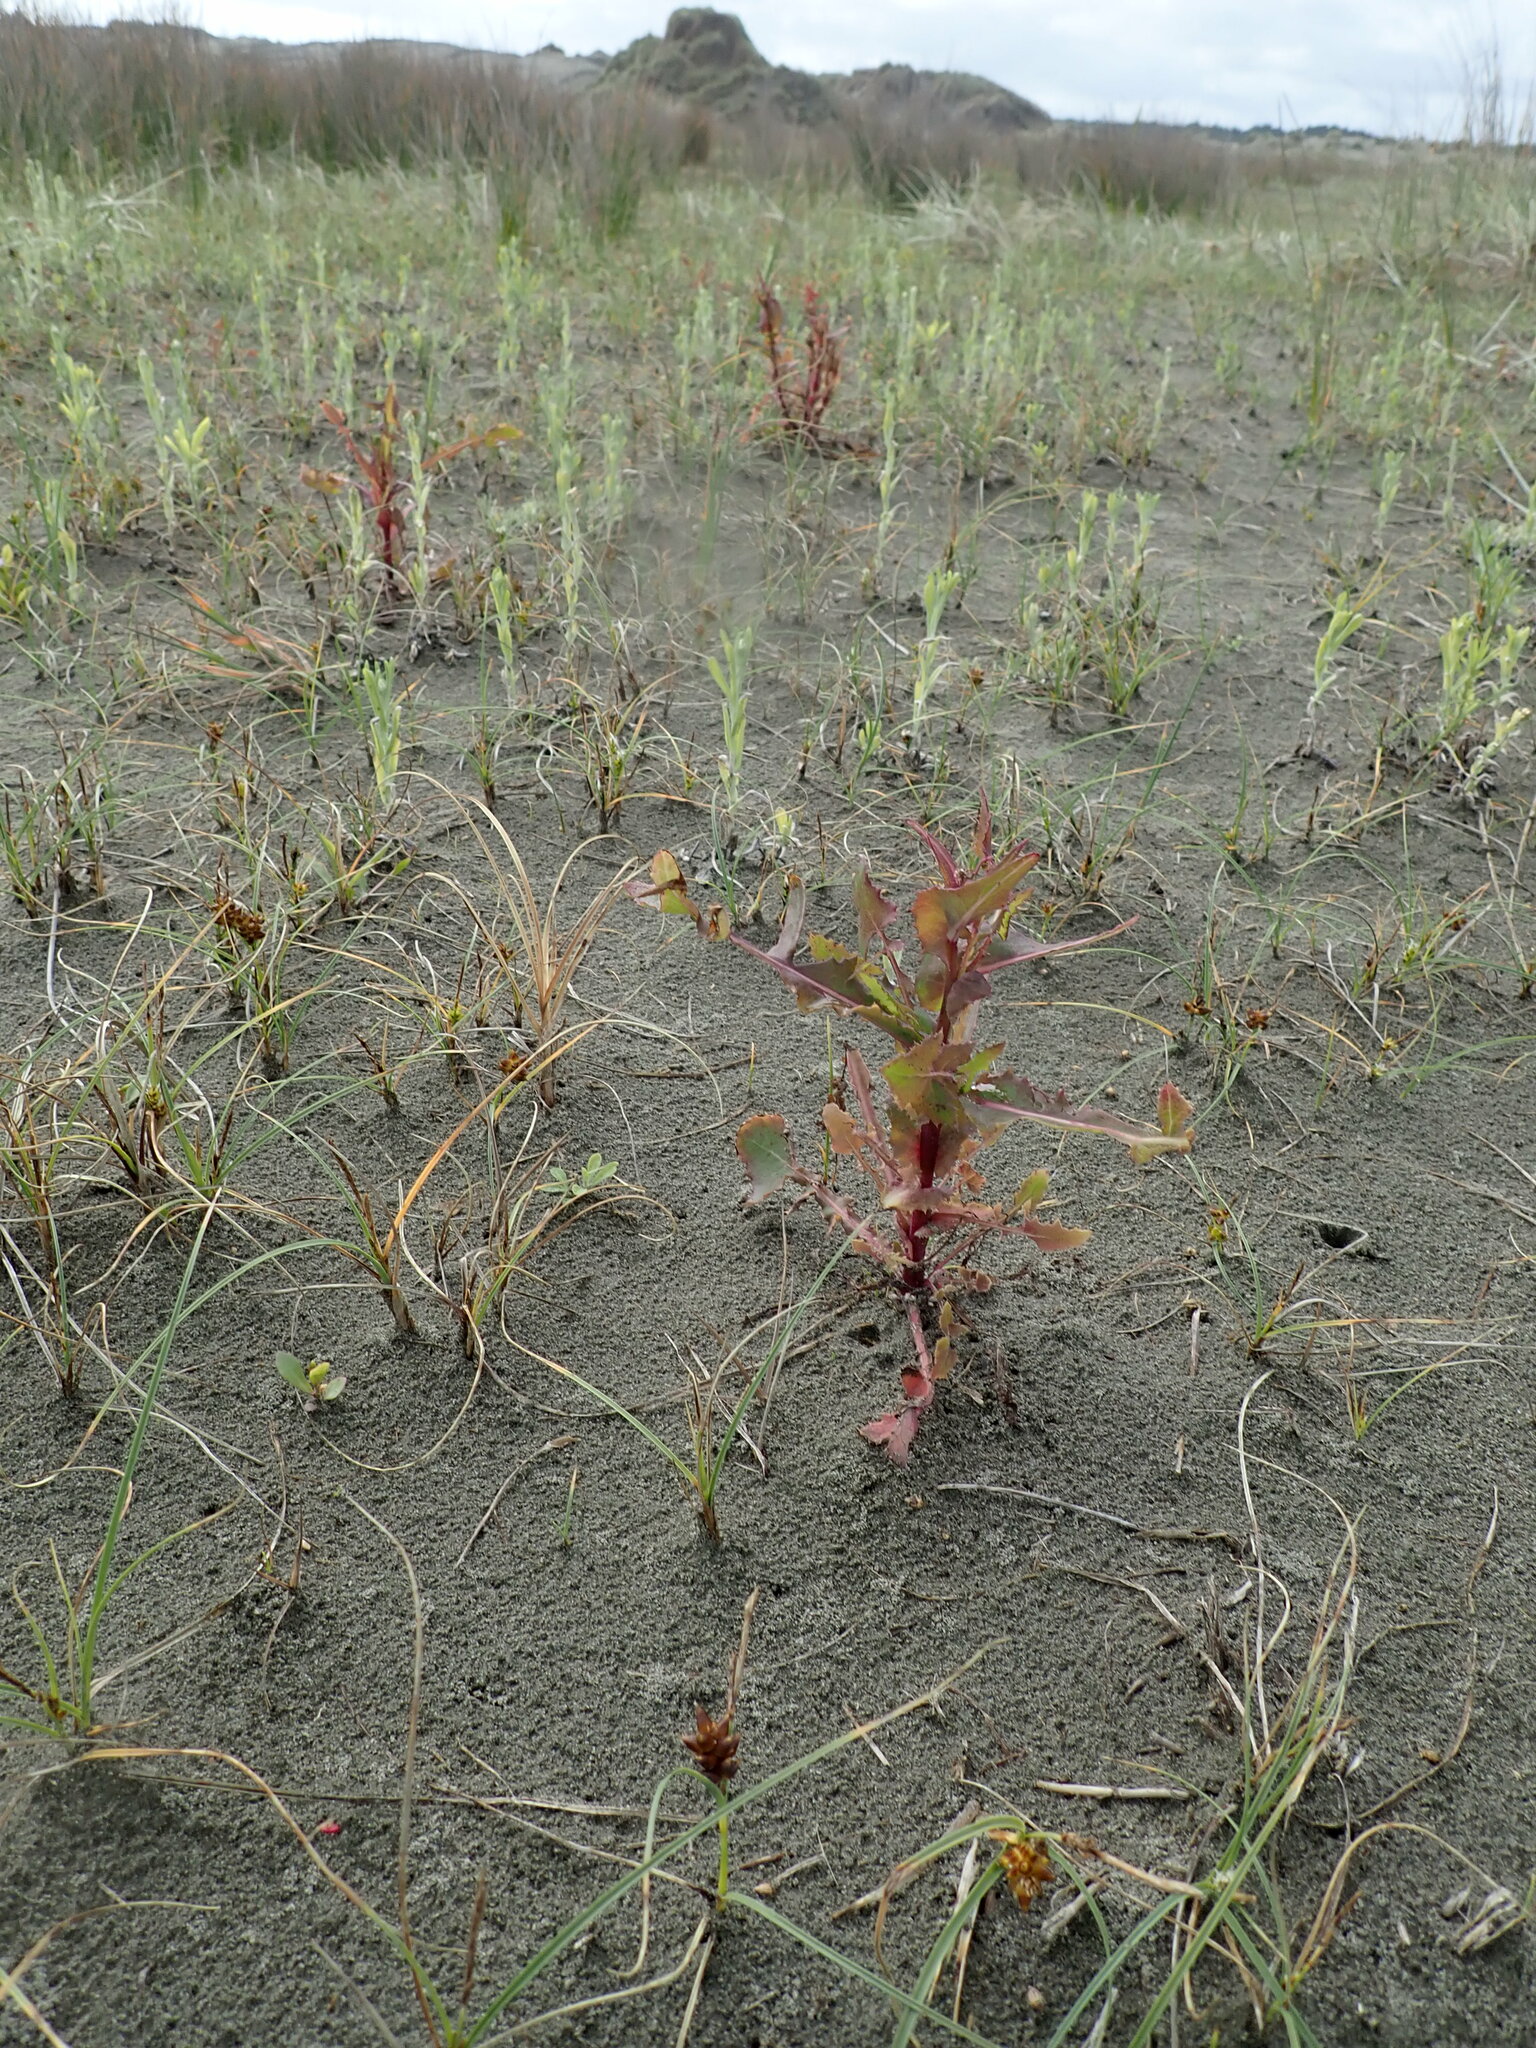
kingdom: Plantae
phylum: Tracheophyta
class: Magnoliopsida
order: Asterales
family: Asteraceae
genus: Sonchus
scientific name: Sonchus oleraceus
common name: Common sowthistle
